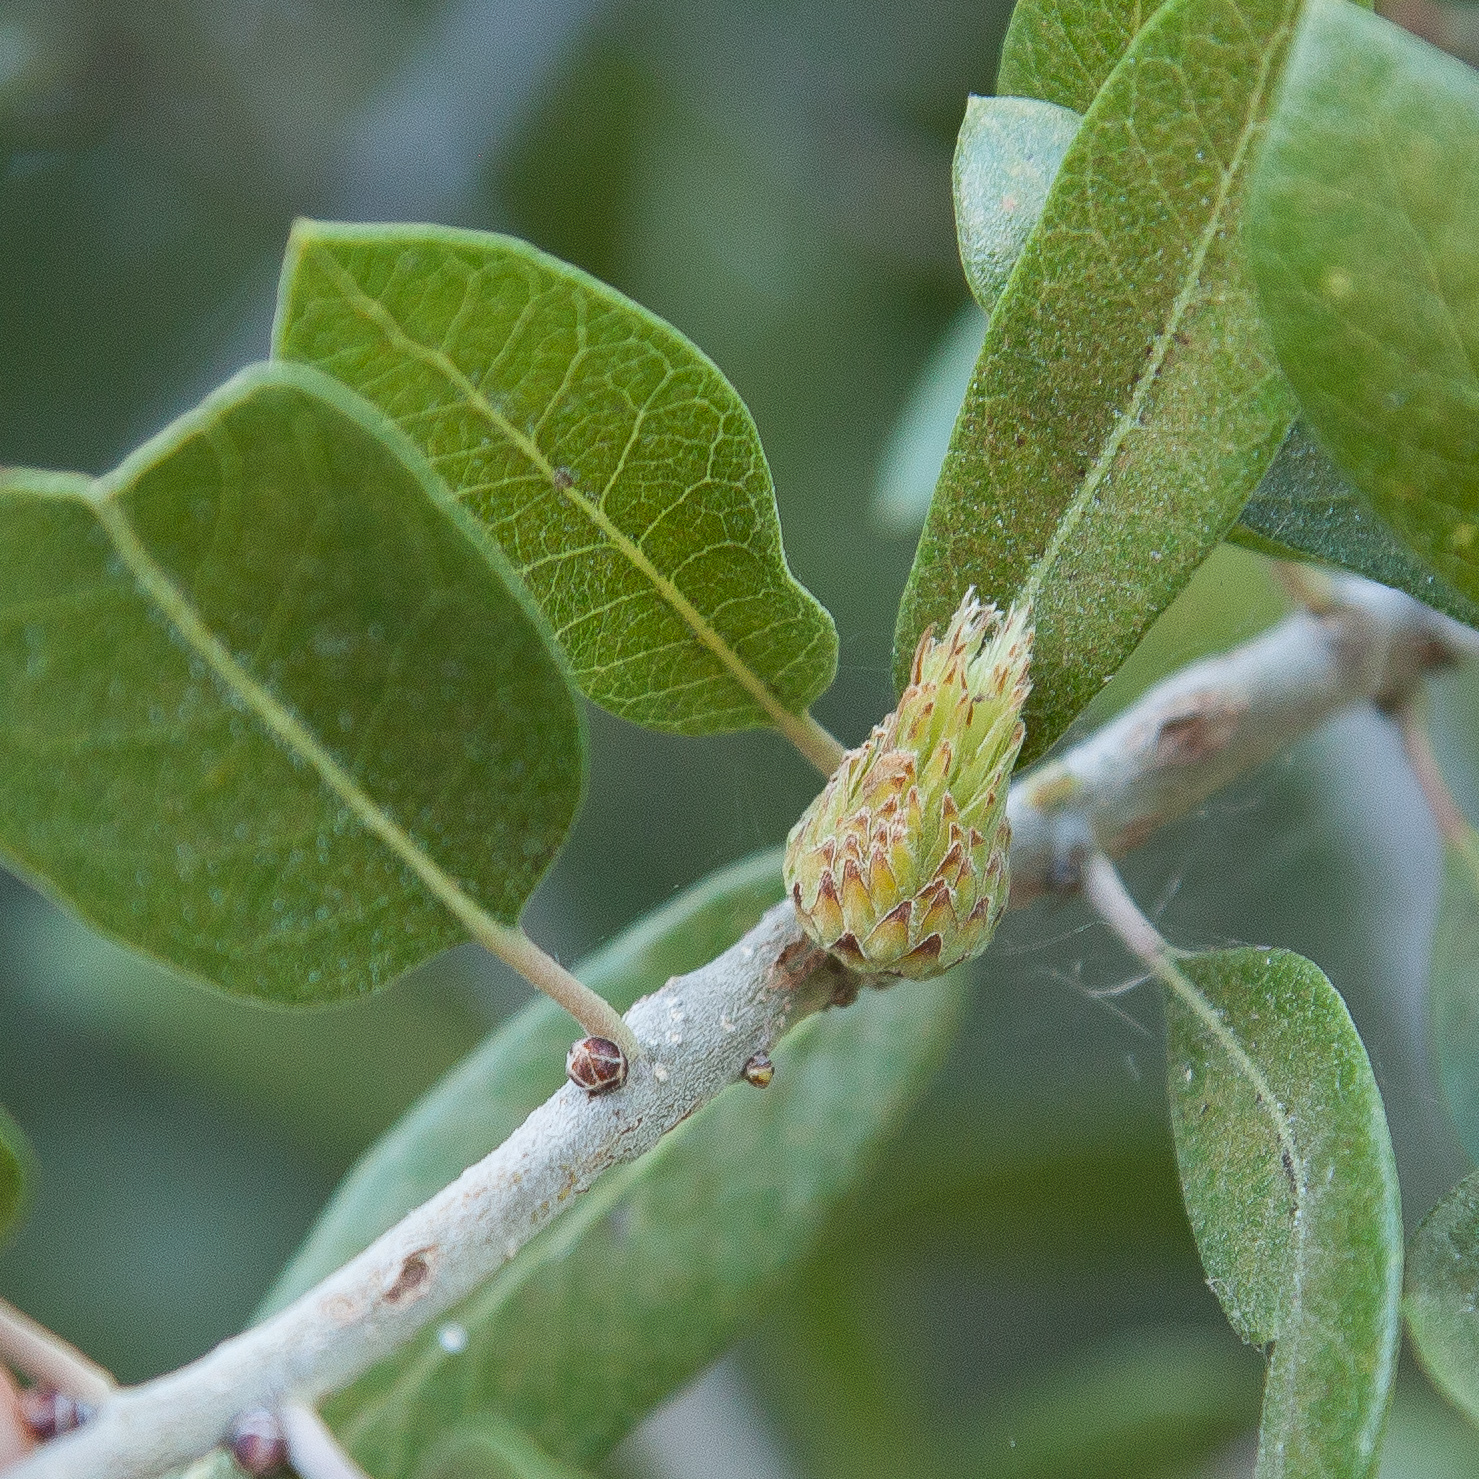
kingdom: Animalia
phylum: Arthropoda
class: Insecta
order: Hymenoptera
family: Cynipidae
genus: Andricus
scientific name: Andricus quercusfoliatus
